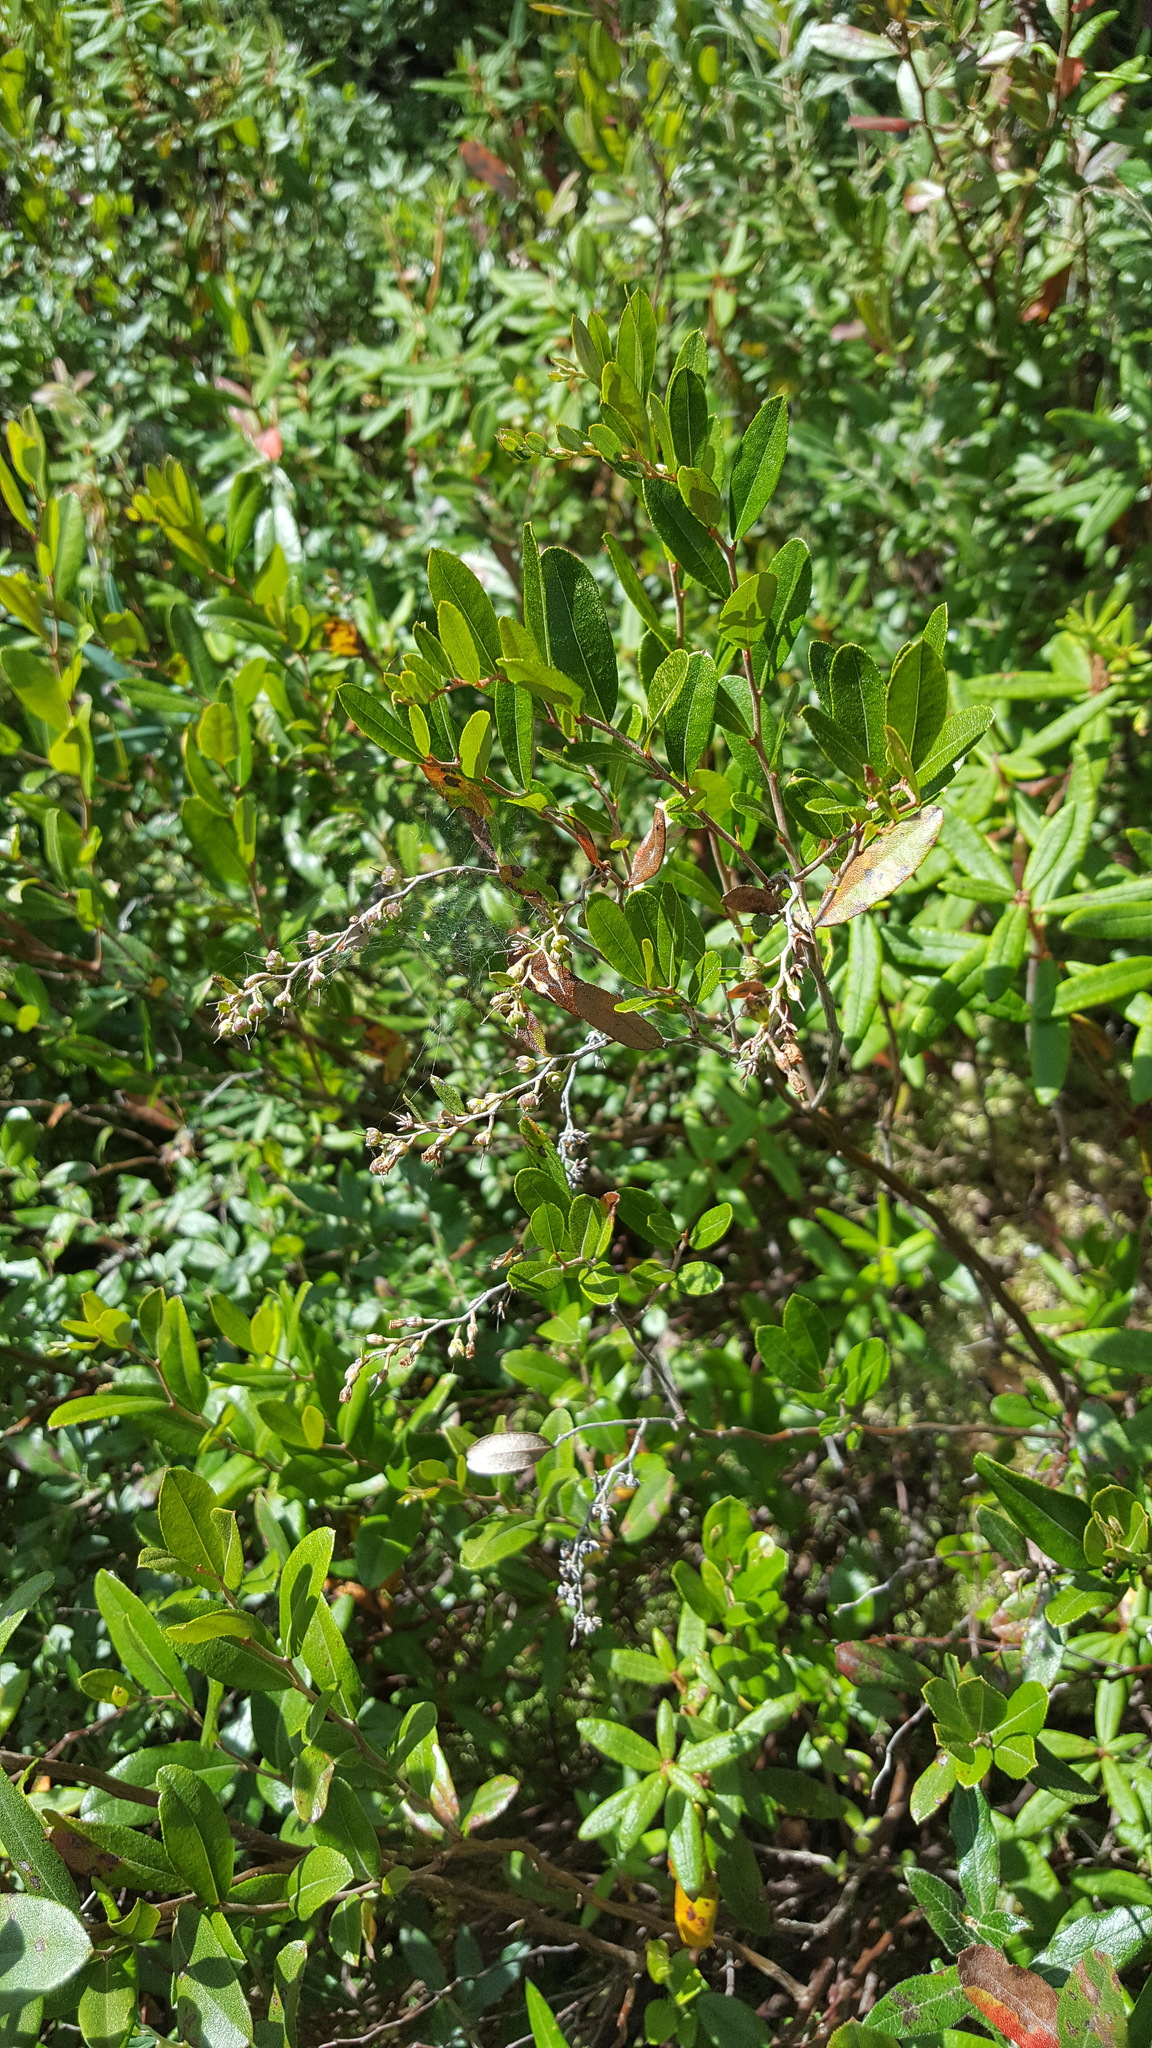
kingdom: Plantae
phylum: Tracheophyta
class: Magnoliopsida
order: Ericales
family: Ericaceae
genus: Chamaedaphne
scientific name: Chamaedaphne calyculata
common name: Leatherleaf
